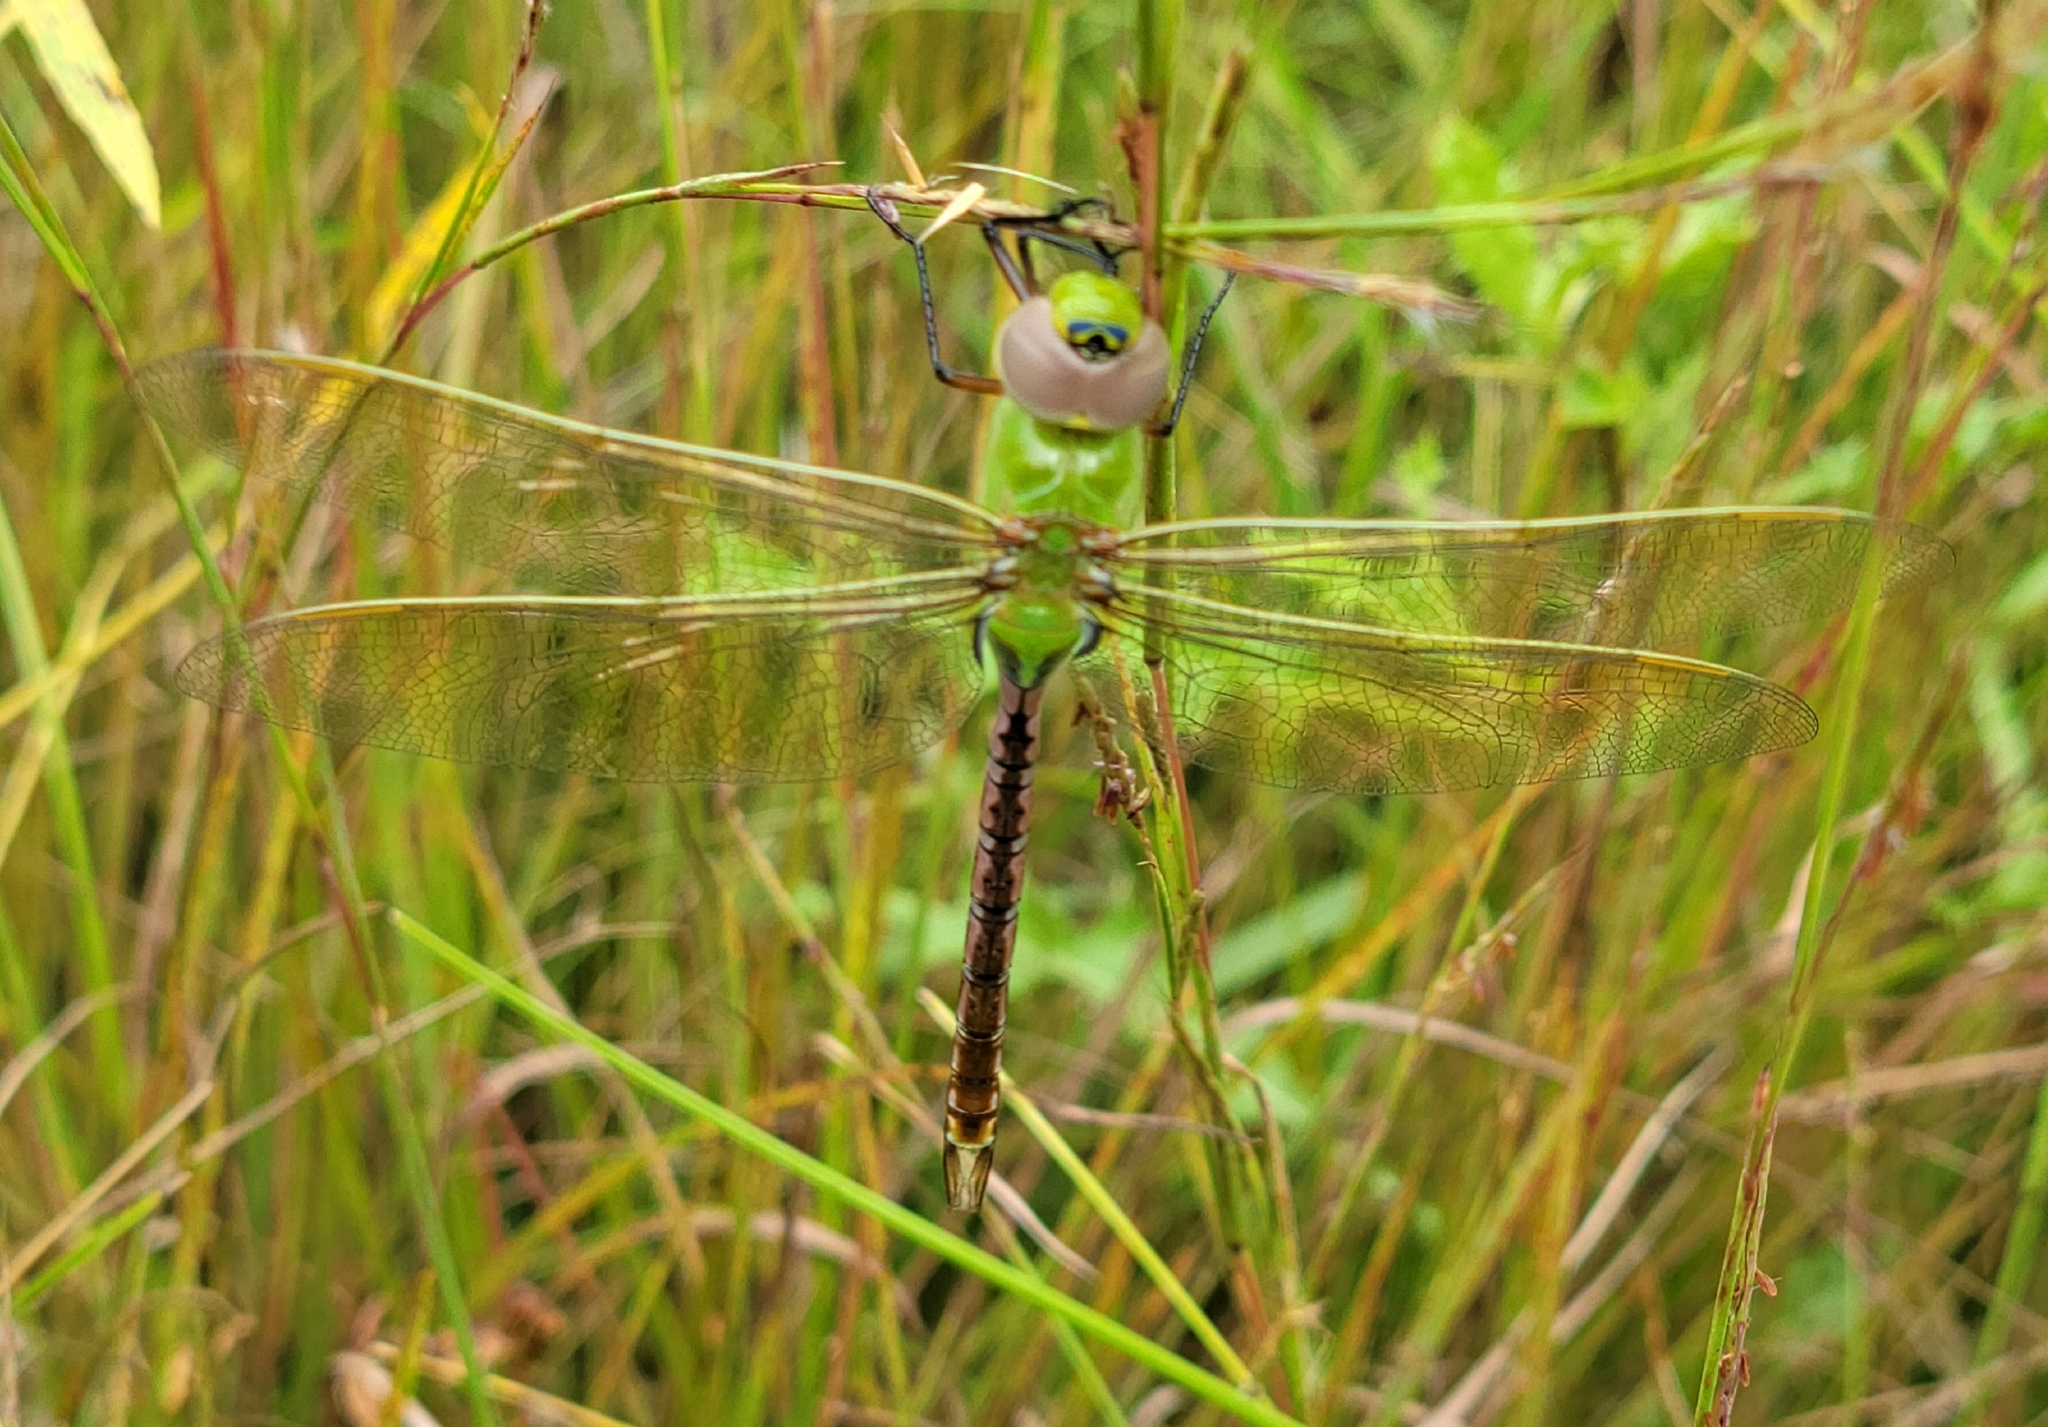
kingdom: Animalia
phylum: Arthropoda
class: Insecta
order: Odonata
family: Aeshnidae
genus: Anax
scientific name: Anax junius
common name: Common green darner
